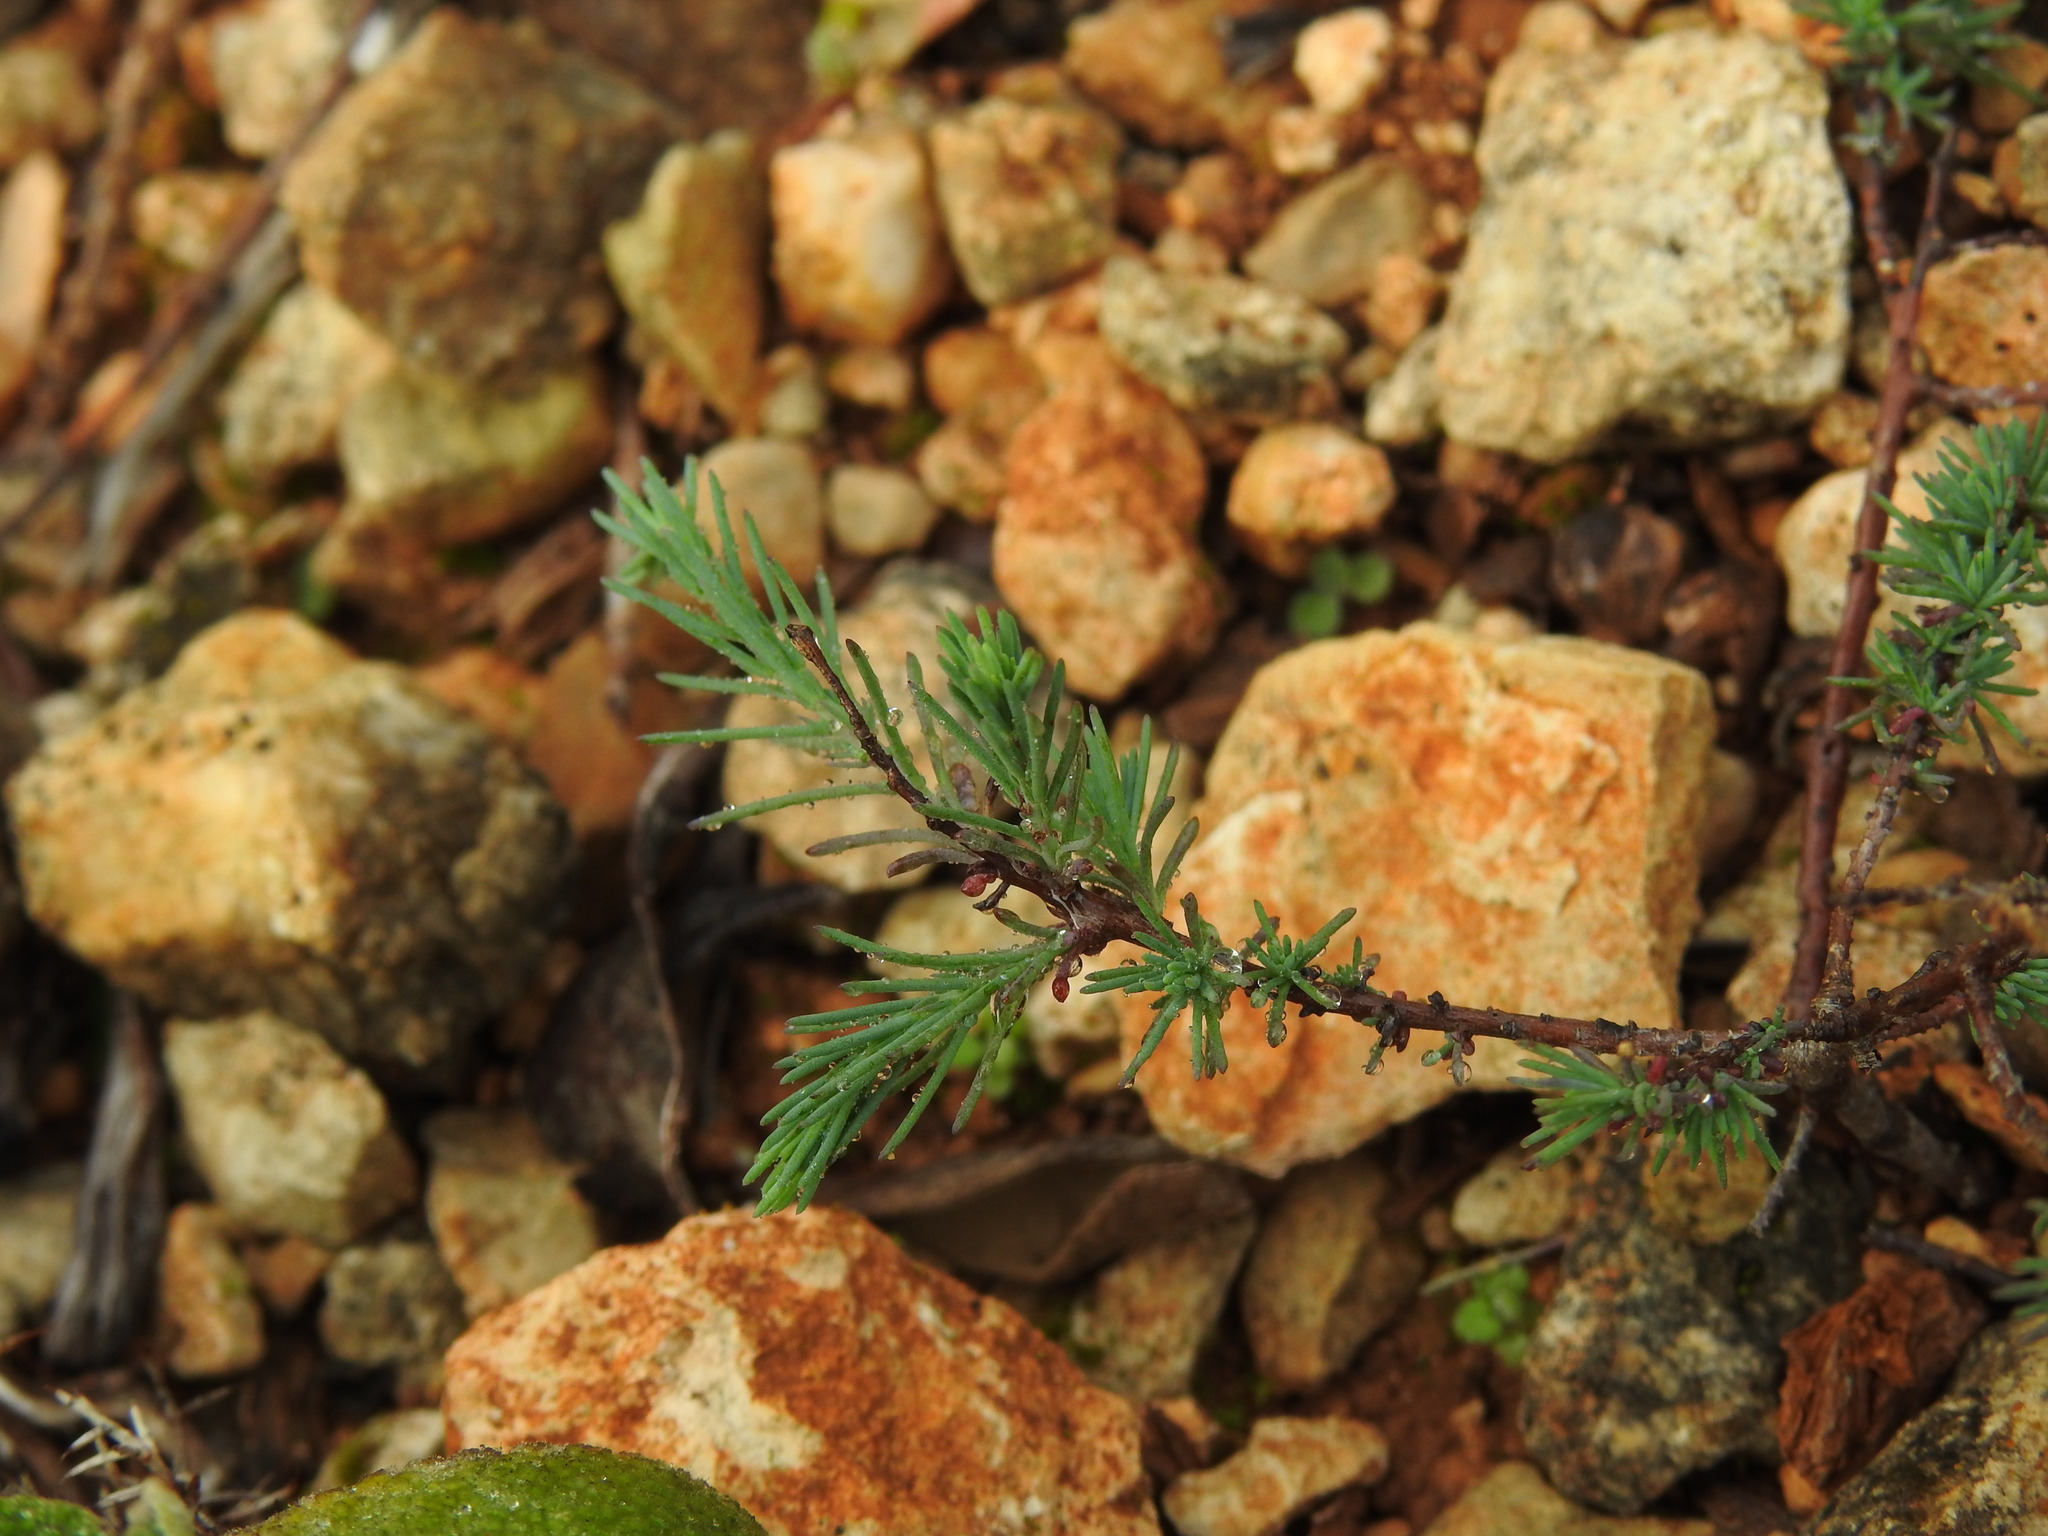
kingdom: Plantae
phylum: Tracheophyta
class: Magnoliopsida
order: Malvales
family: Cistaceae
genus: Fumana
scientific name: Fumana laevipes
